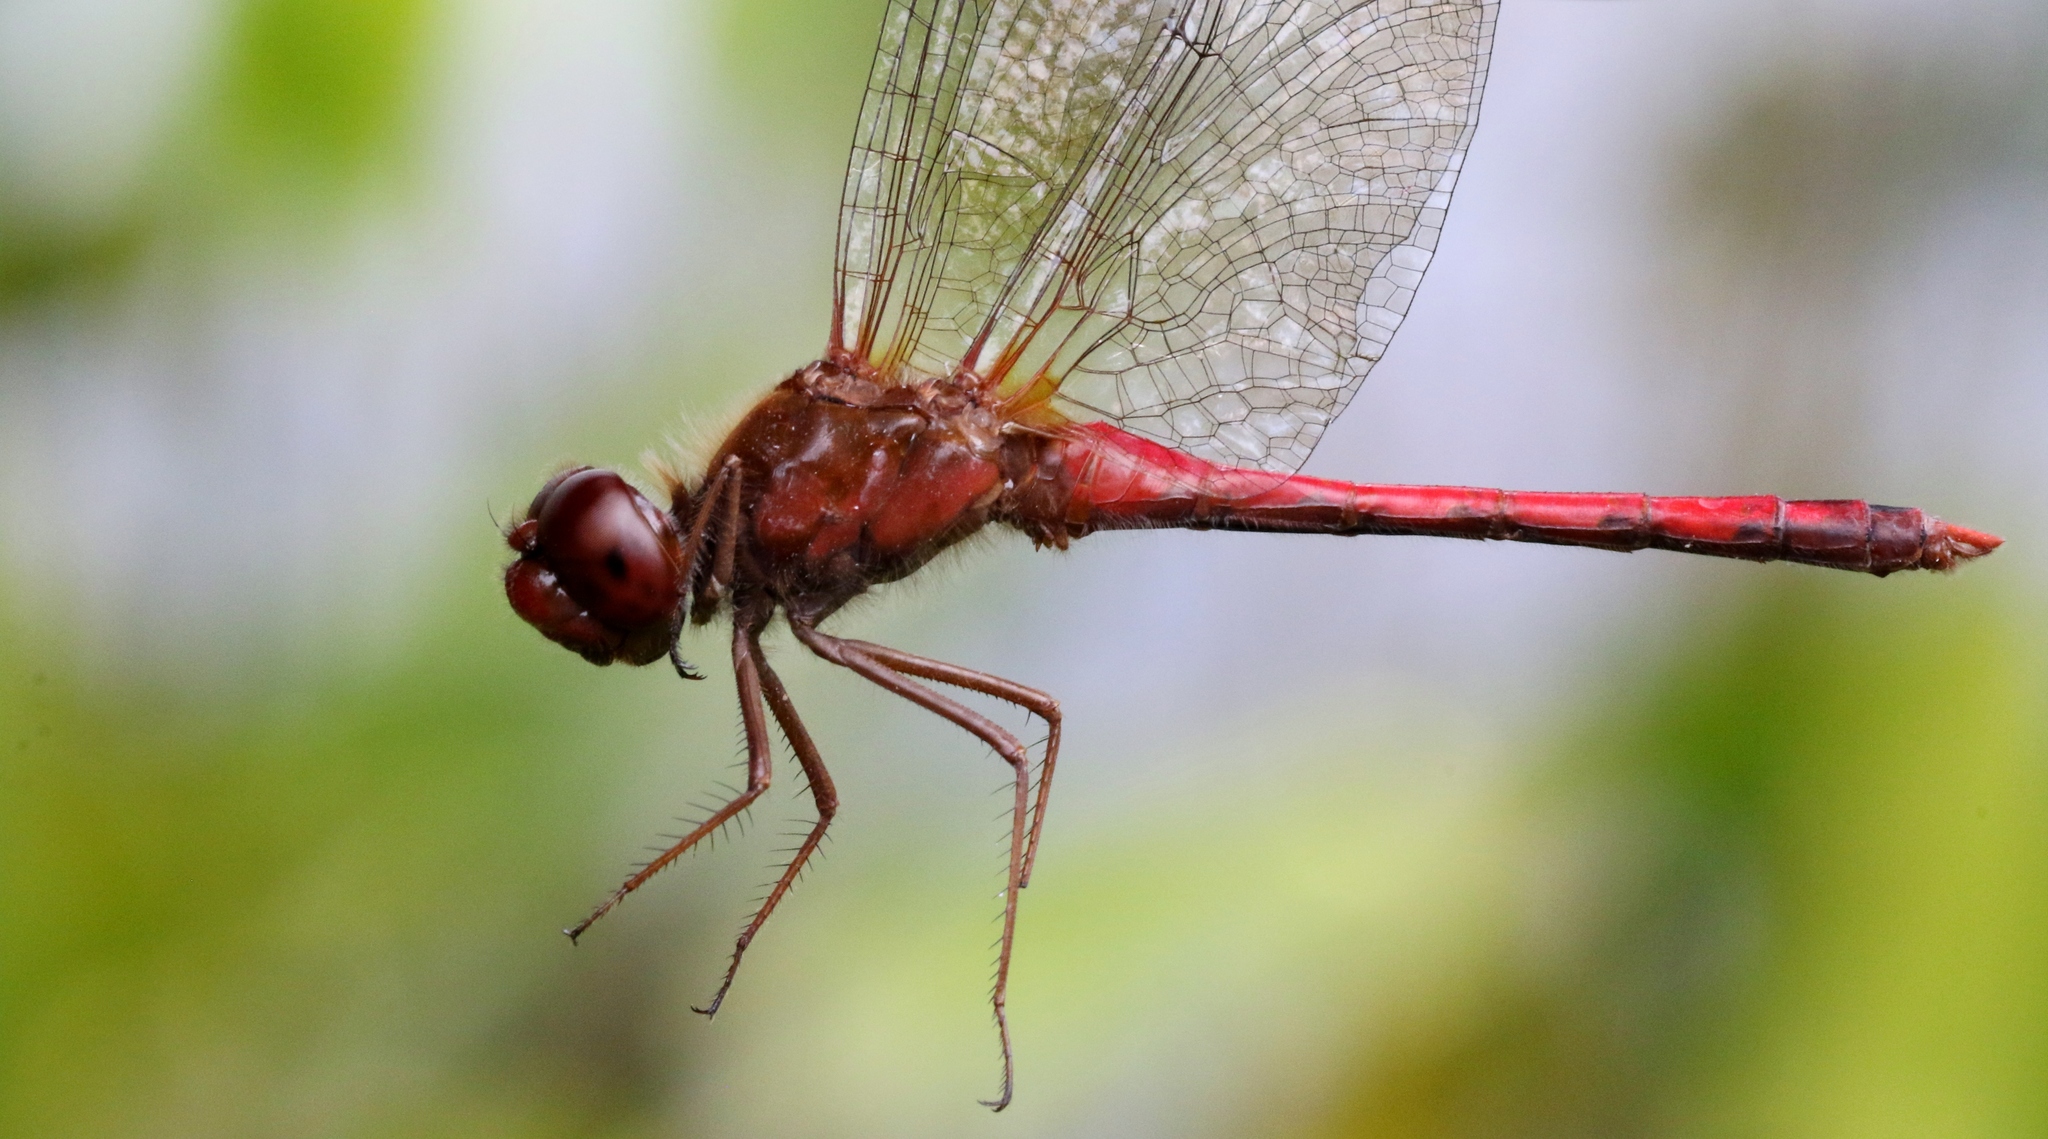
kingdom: Animalia
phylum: Arthropoda
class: Insecta
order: Odonata
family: Libellulidae
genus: Sympetrum
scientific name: Sympetrum vicinum
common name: Autumn meadowhawk
